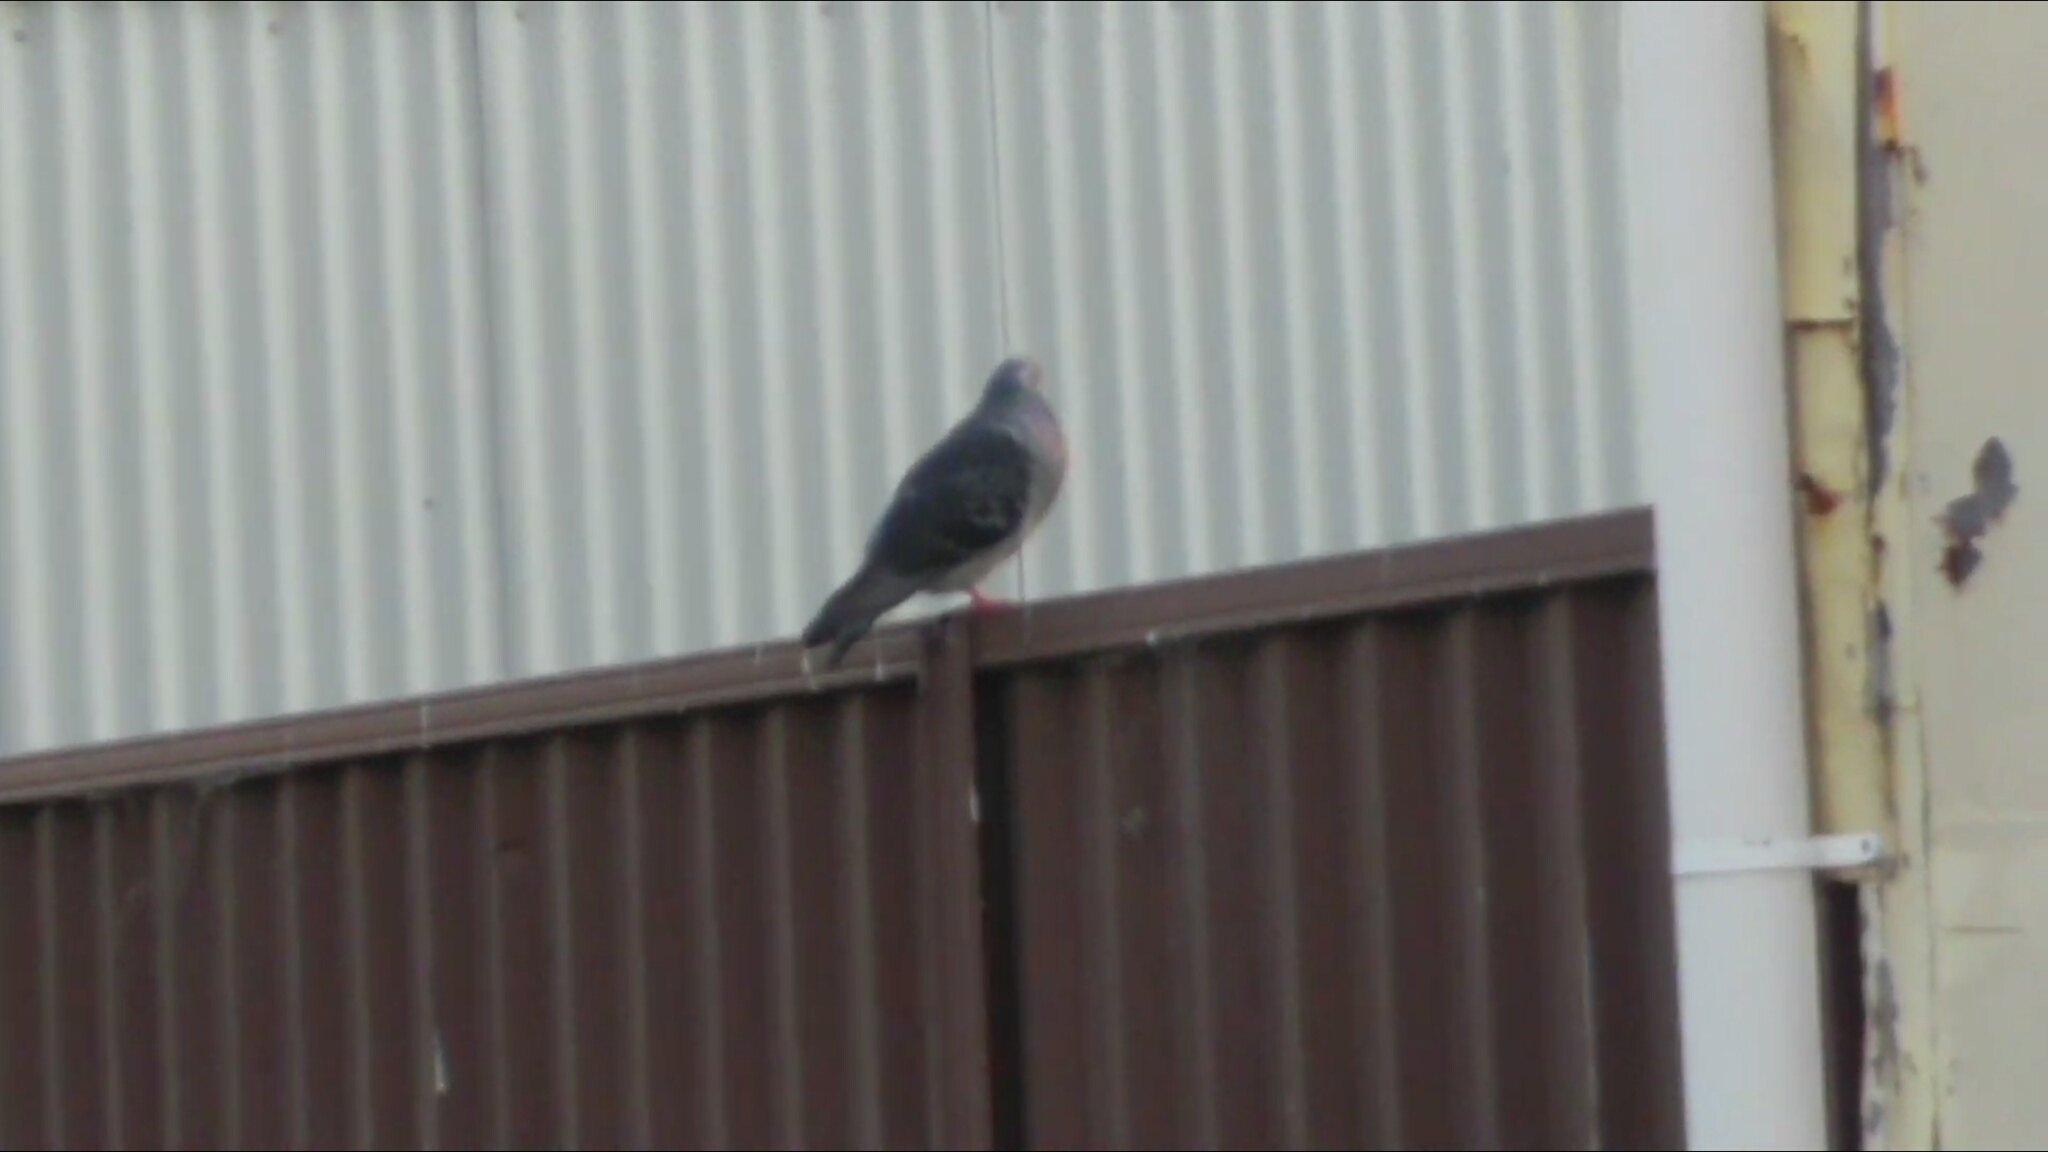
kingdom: Animalia
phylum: Chordata
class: Aves
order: Columbiformes
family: Columbidae
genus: Columba
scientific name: Columba livia
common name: Rock pigeon
